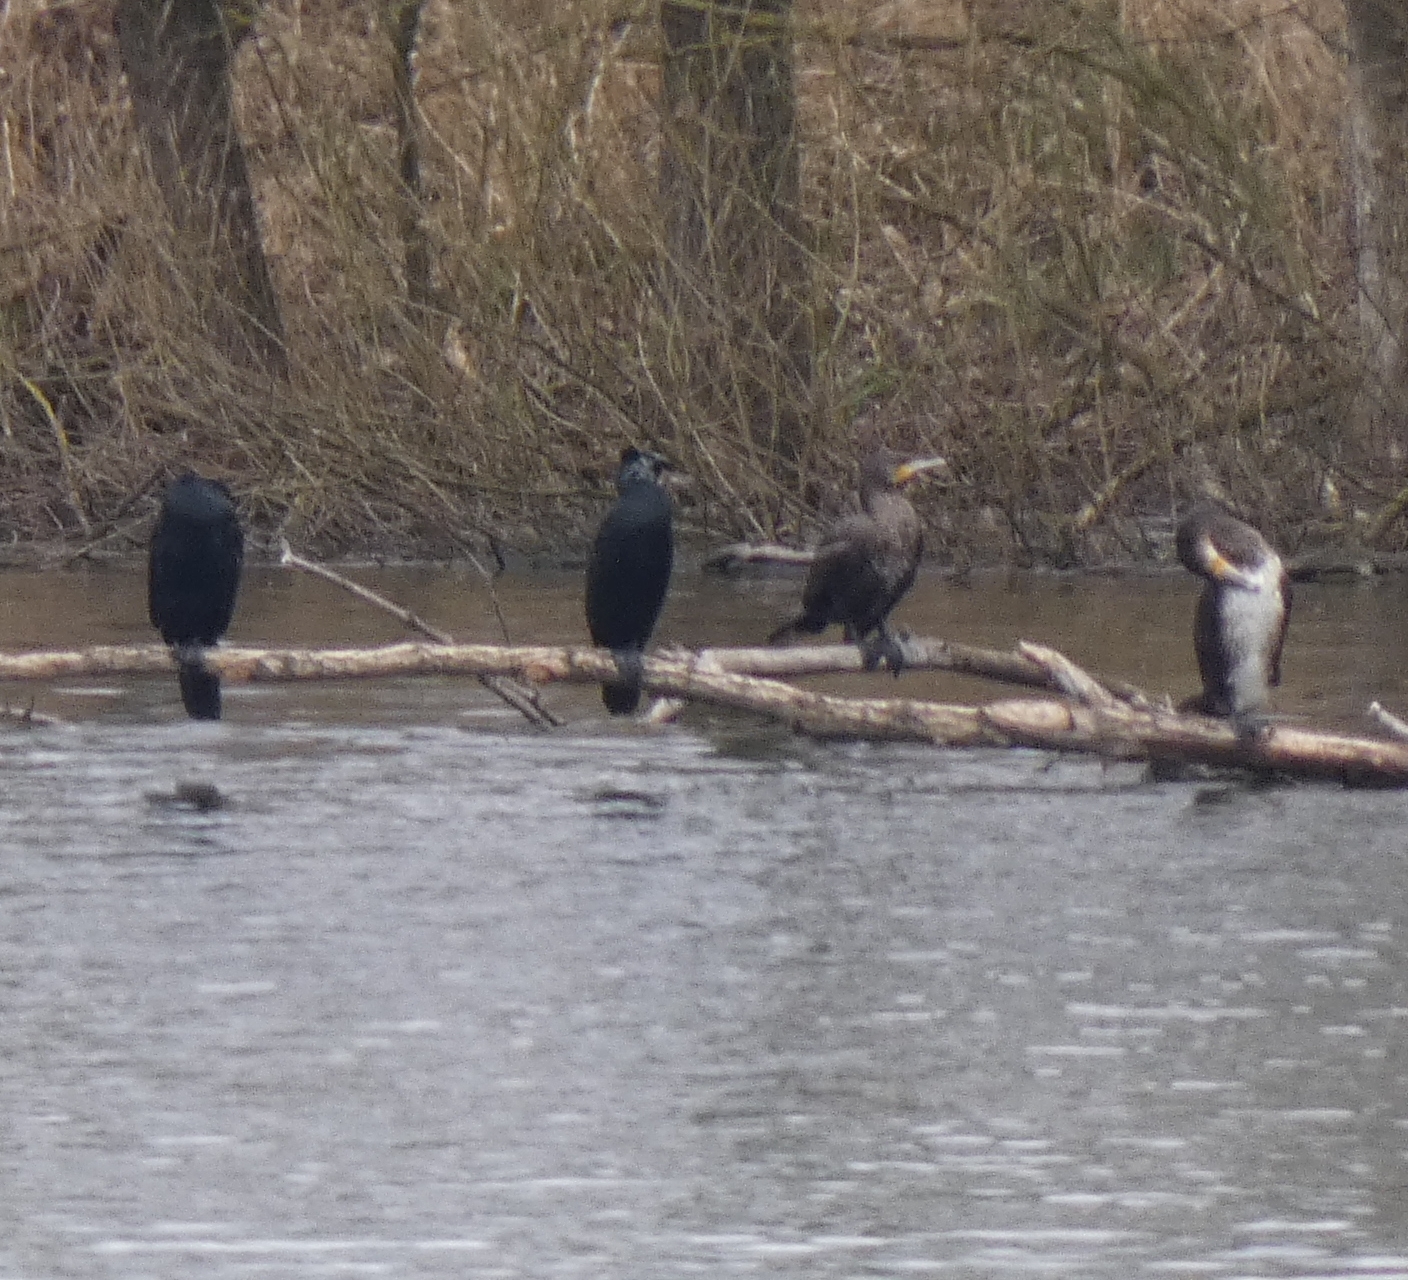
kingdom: Animalia
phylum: Chordata
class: Aves
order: Suliformes
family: Phalacrocoracidae
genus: Phalacrocorax
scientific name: Phalacrocorax carbo
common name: Great cormorant
